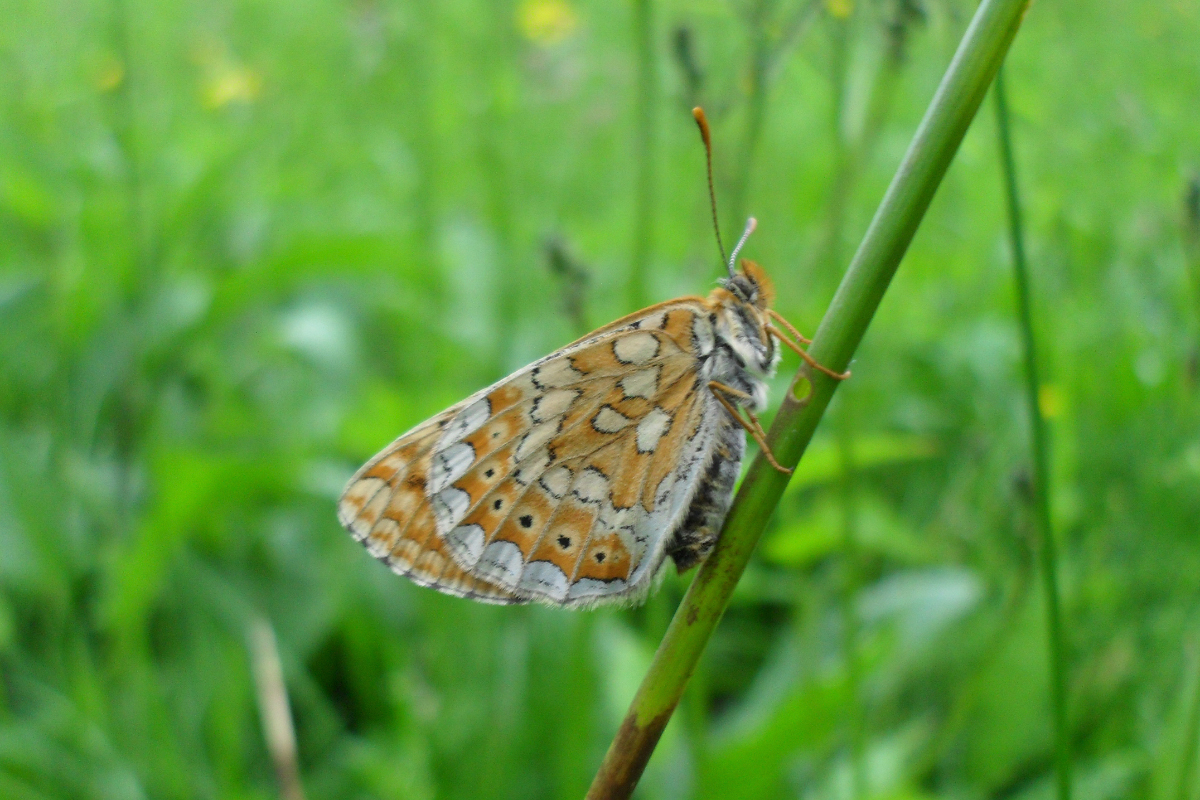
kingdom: Animalia
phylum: Arthropoda
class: Insecta
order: Lepidoptera
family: Nymphalidae
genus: Euphydryas
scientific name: Euphydryas aurinia
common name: Marsh fritillary
